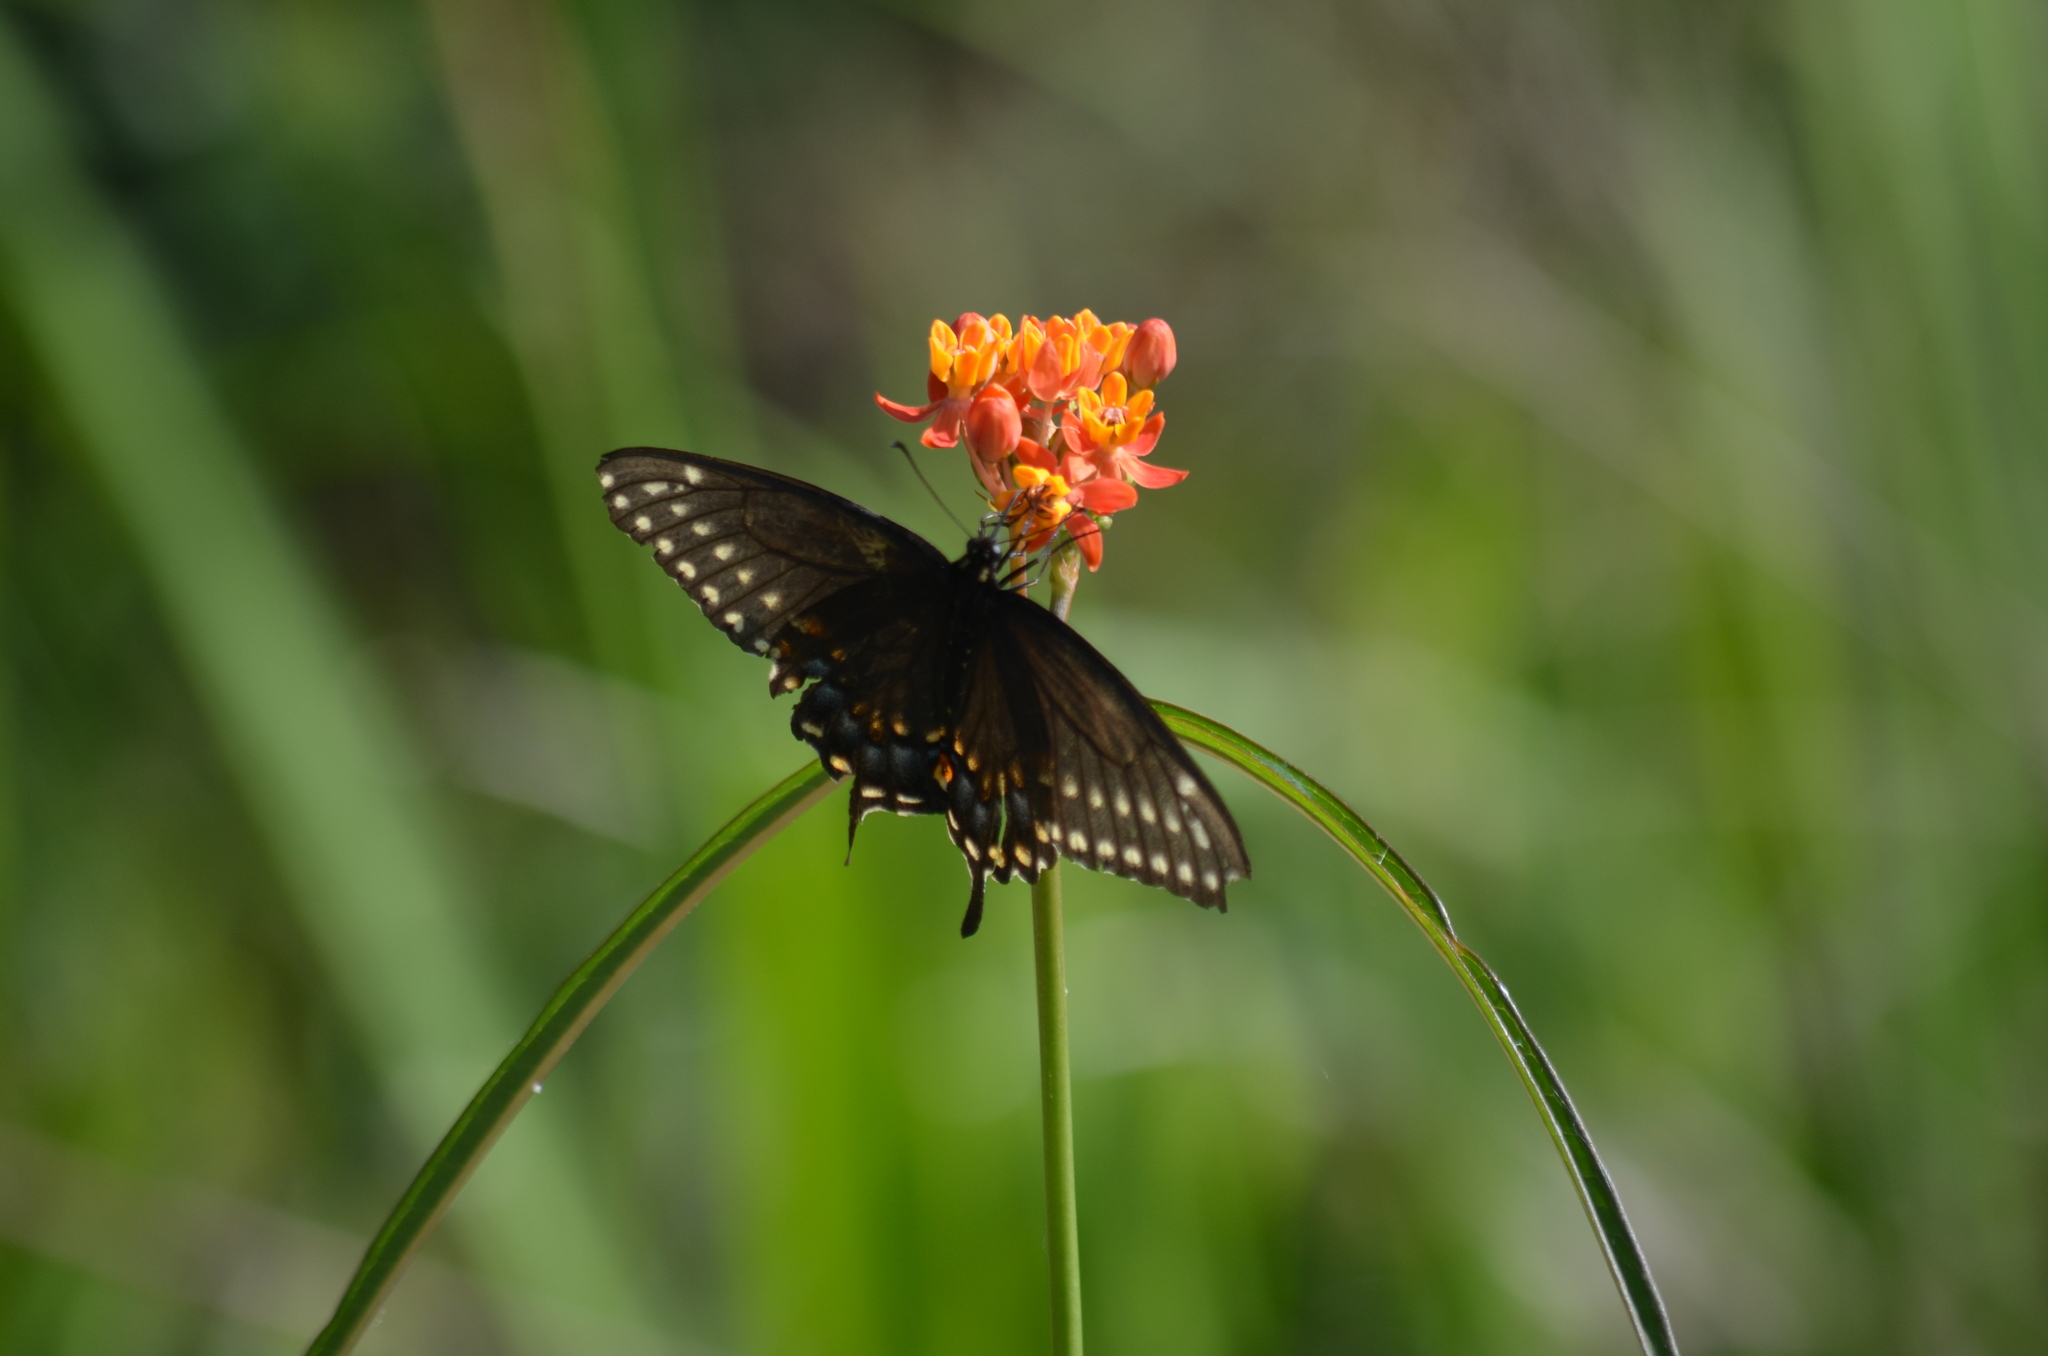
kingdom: Animalia
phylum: Arthropoda
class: Insecta
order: Lepidoptera
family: Papilionidae
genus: Papilio
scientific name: Papilio polyxenes
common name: Black swallowtail
